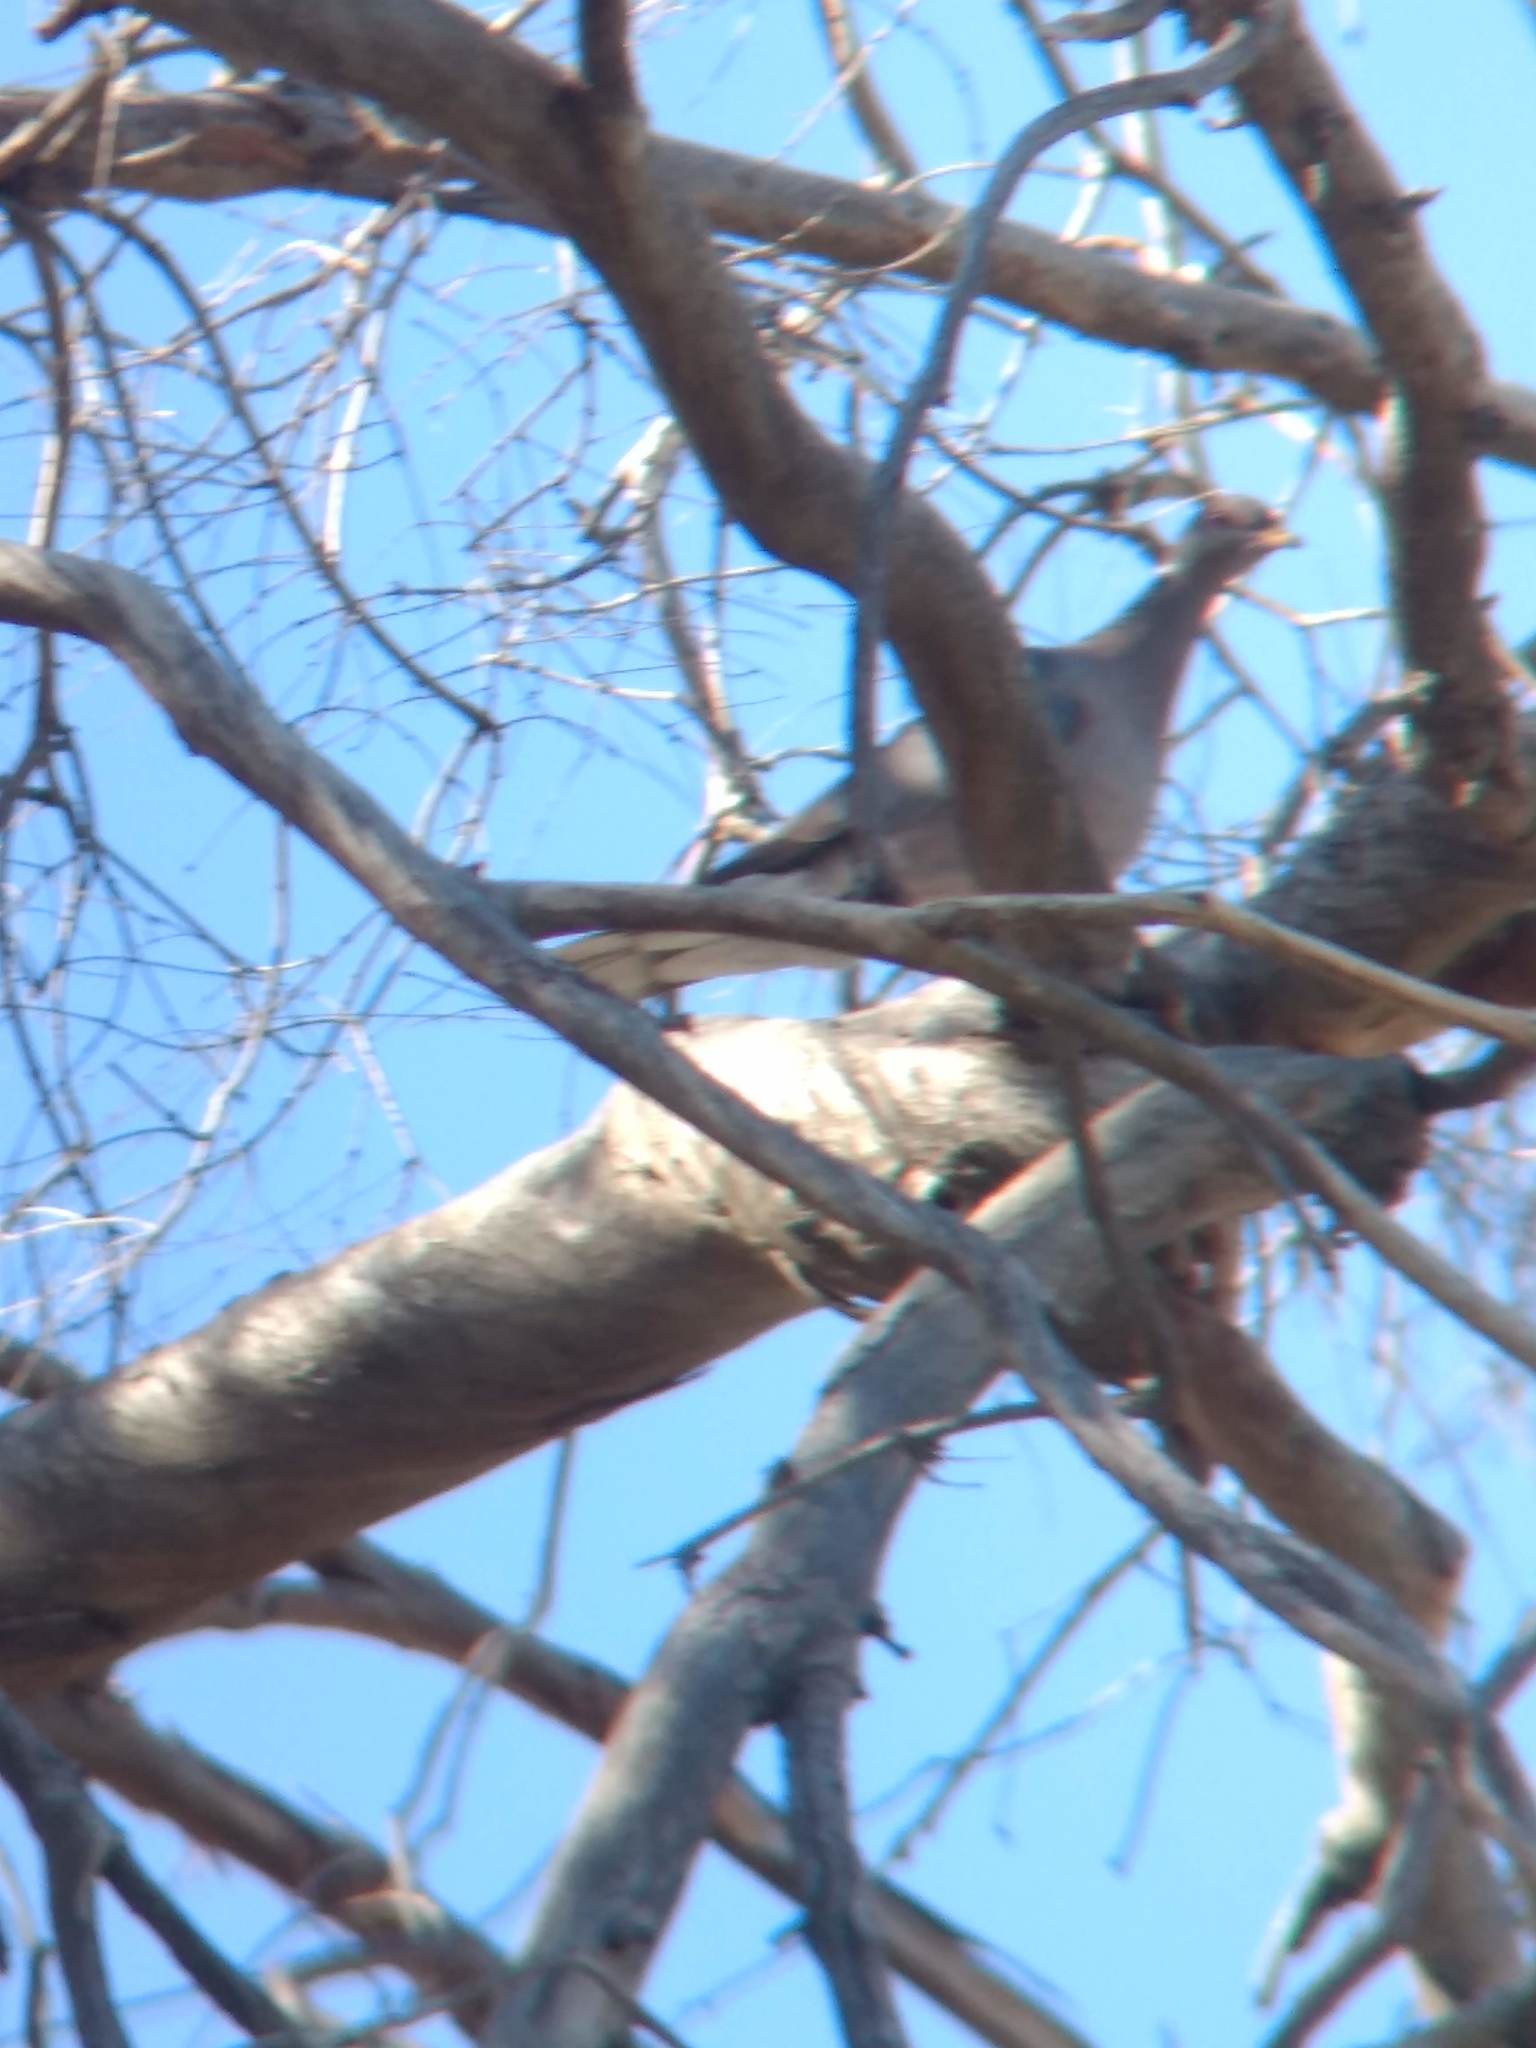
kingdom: Animalia
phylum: Chordata
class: Aves
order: Columbiformes
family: Columbidae
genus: Patagioenas
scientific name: Patagioenas fasciata
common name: Band-tailed pigeon
